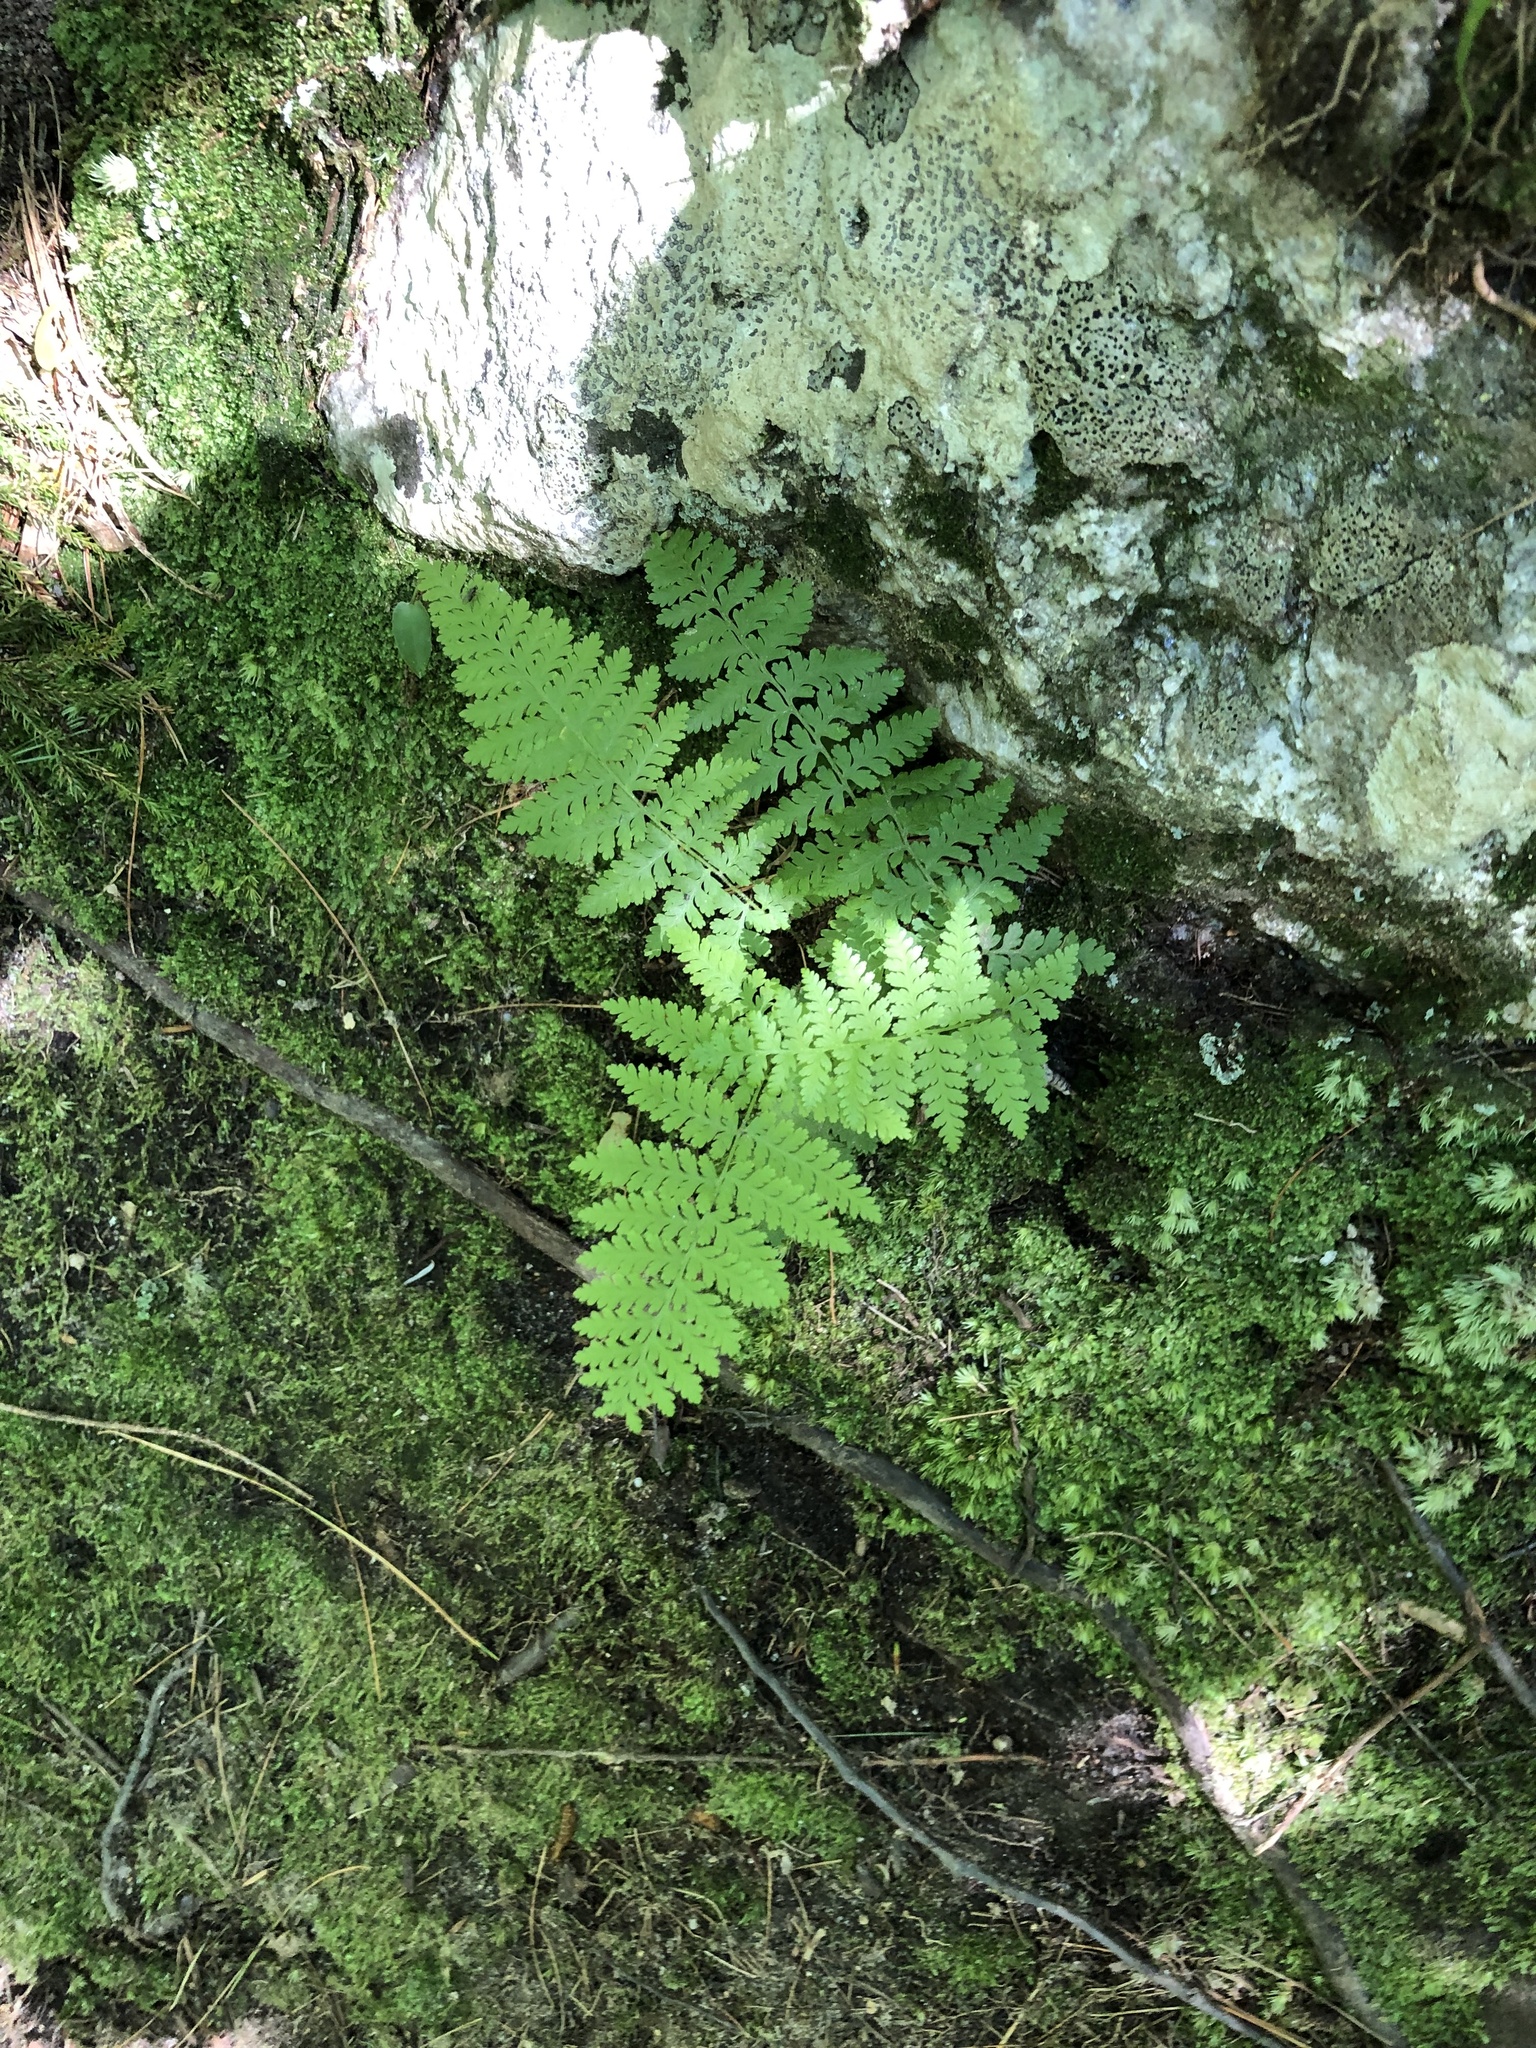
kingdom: Plantae
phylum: Tracheophyta
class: Polypodiopsida
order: Polypodiales
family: Dennstaedtiaceae
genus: Sitobolium
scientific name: Sitobolium punctilobum
